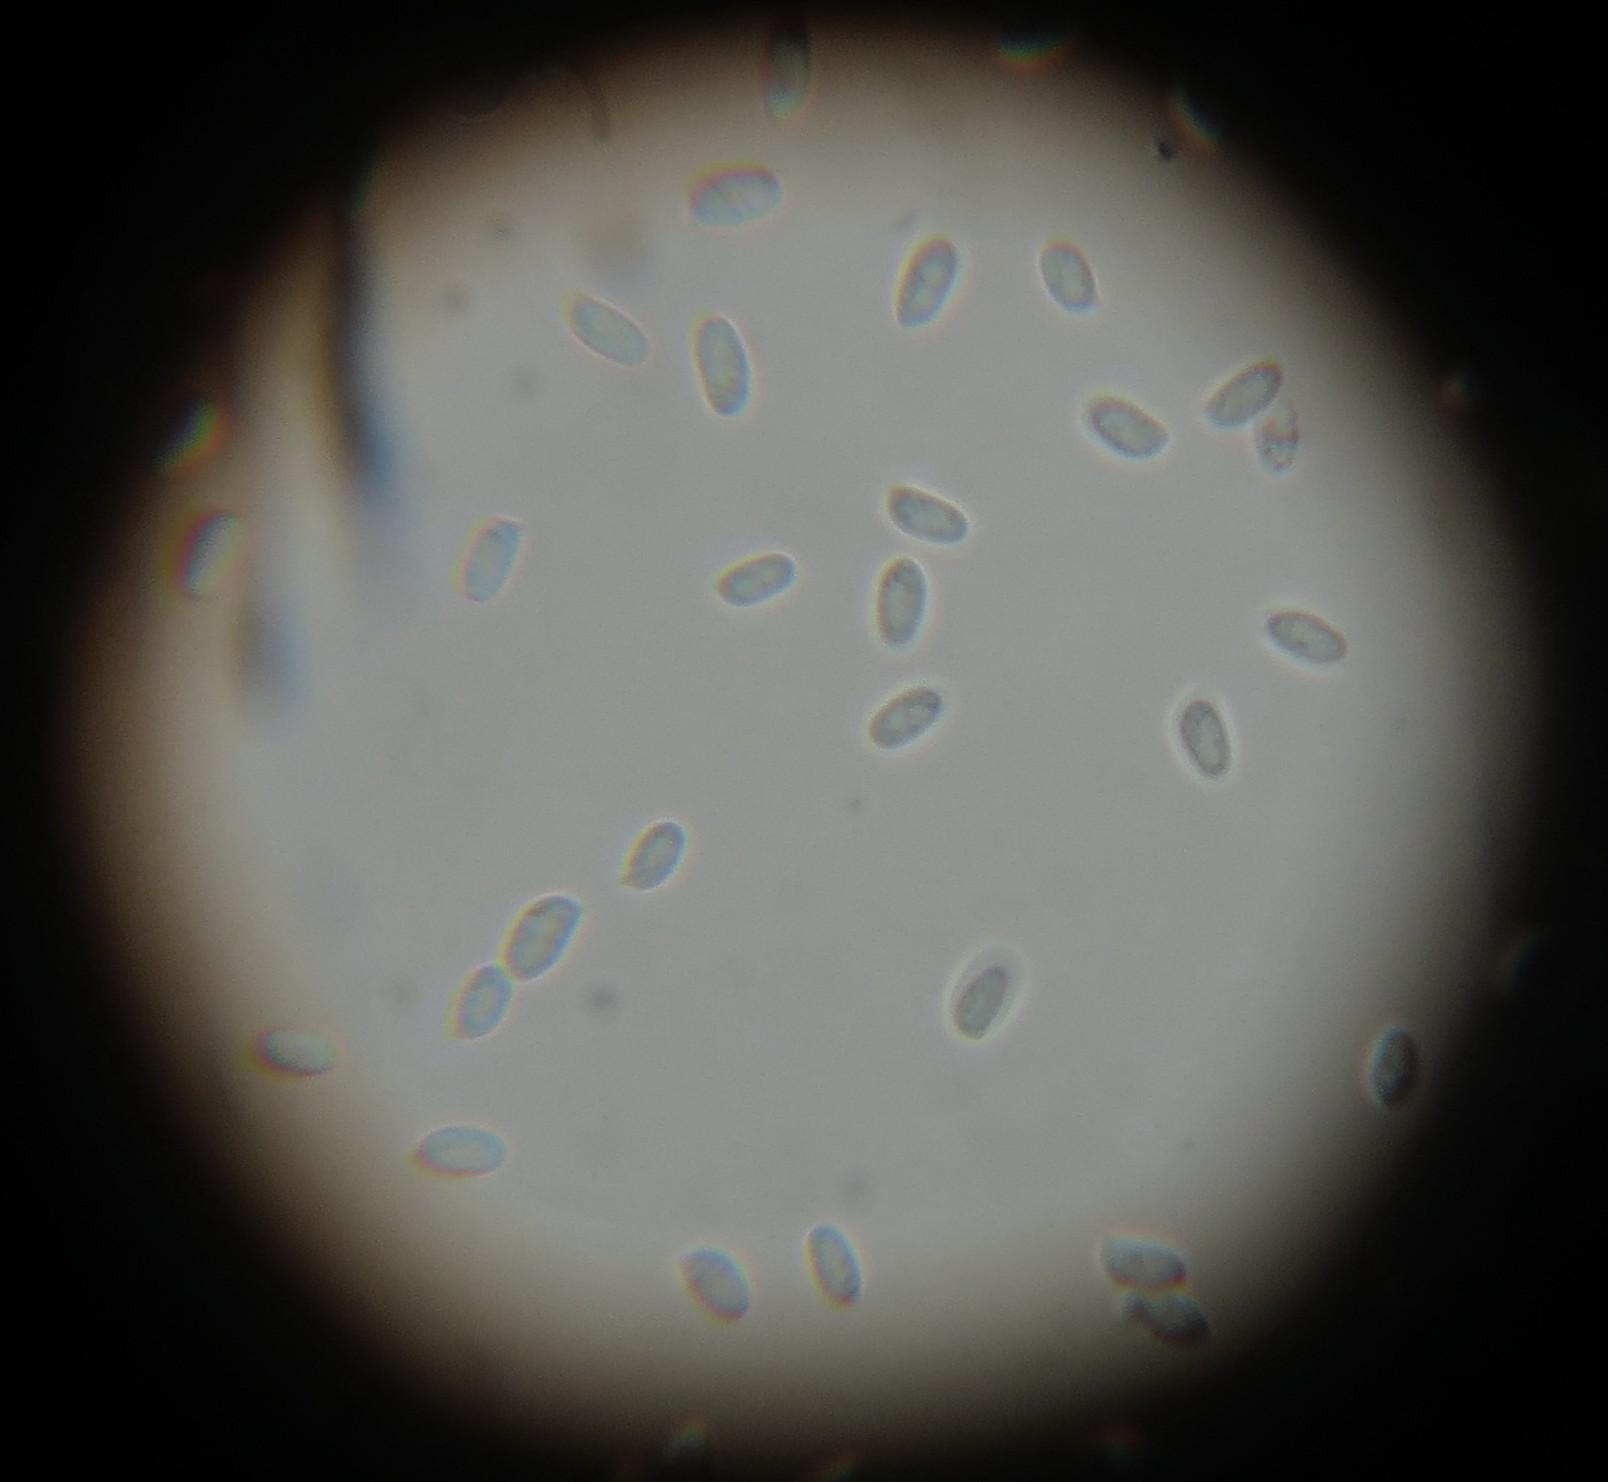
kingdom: Fungi
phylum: Basidiomycota
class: Agaricomycetes
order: Agaricales
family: Physalacriaceae
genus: Flammulina
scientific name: Flammulina velutipes
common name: Velvet shank
